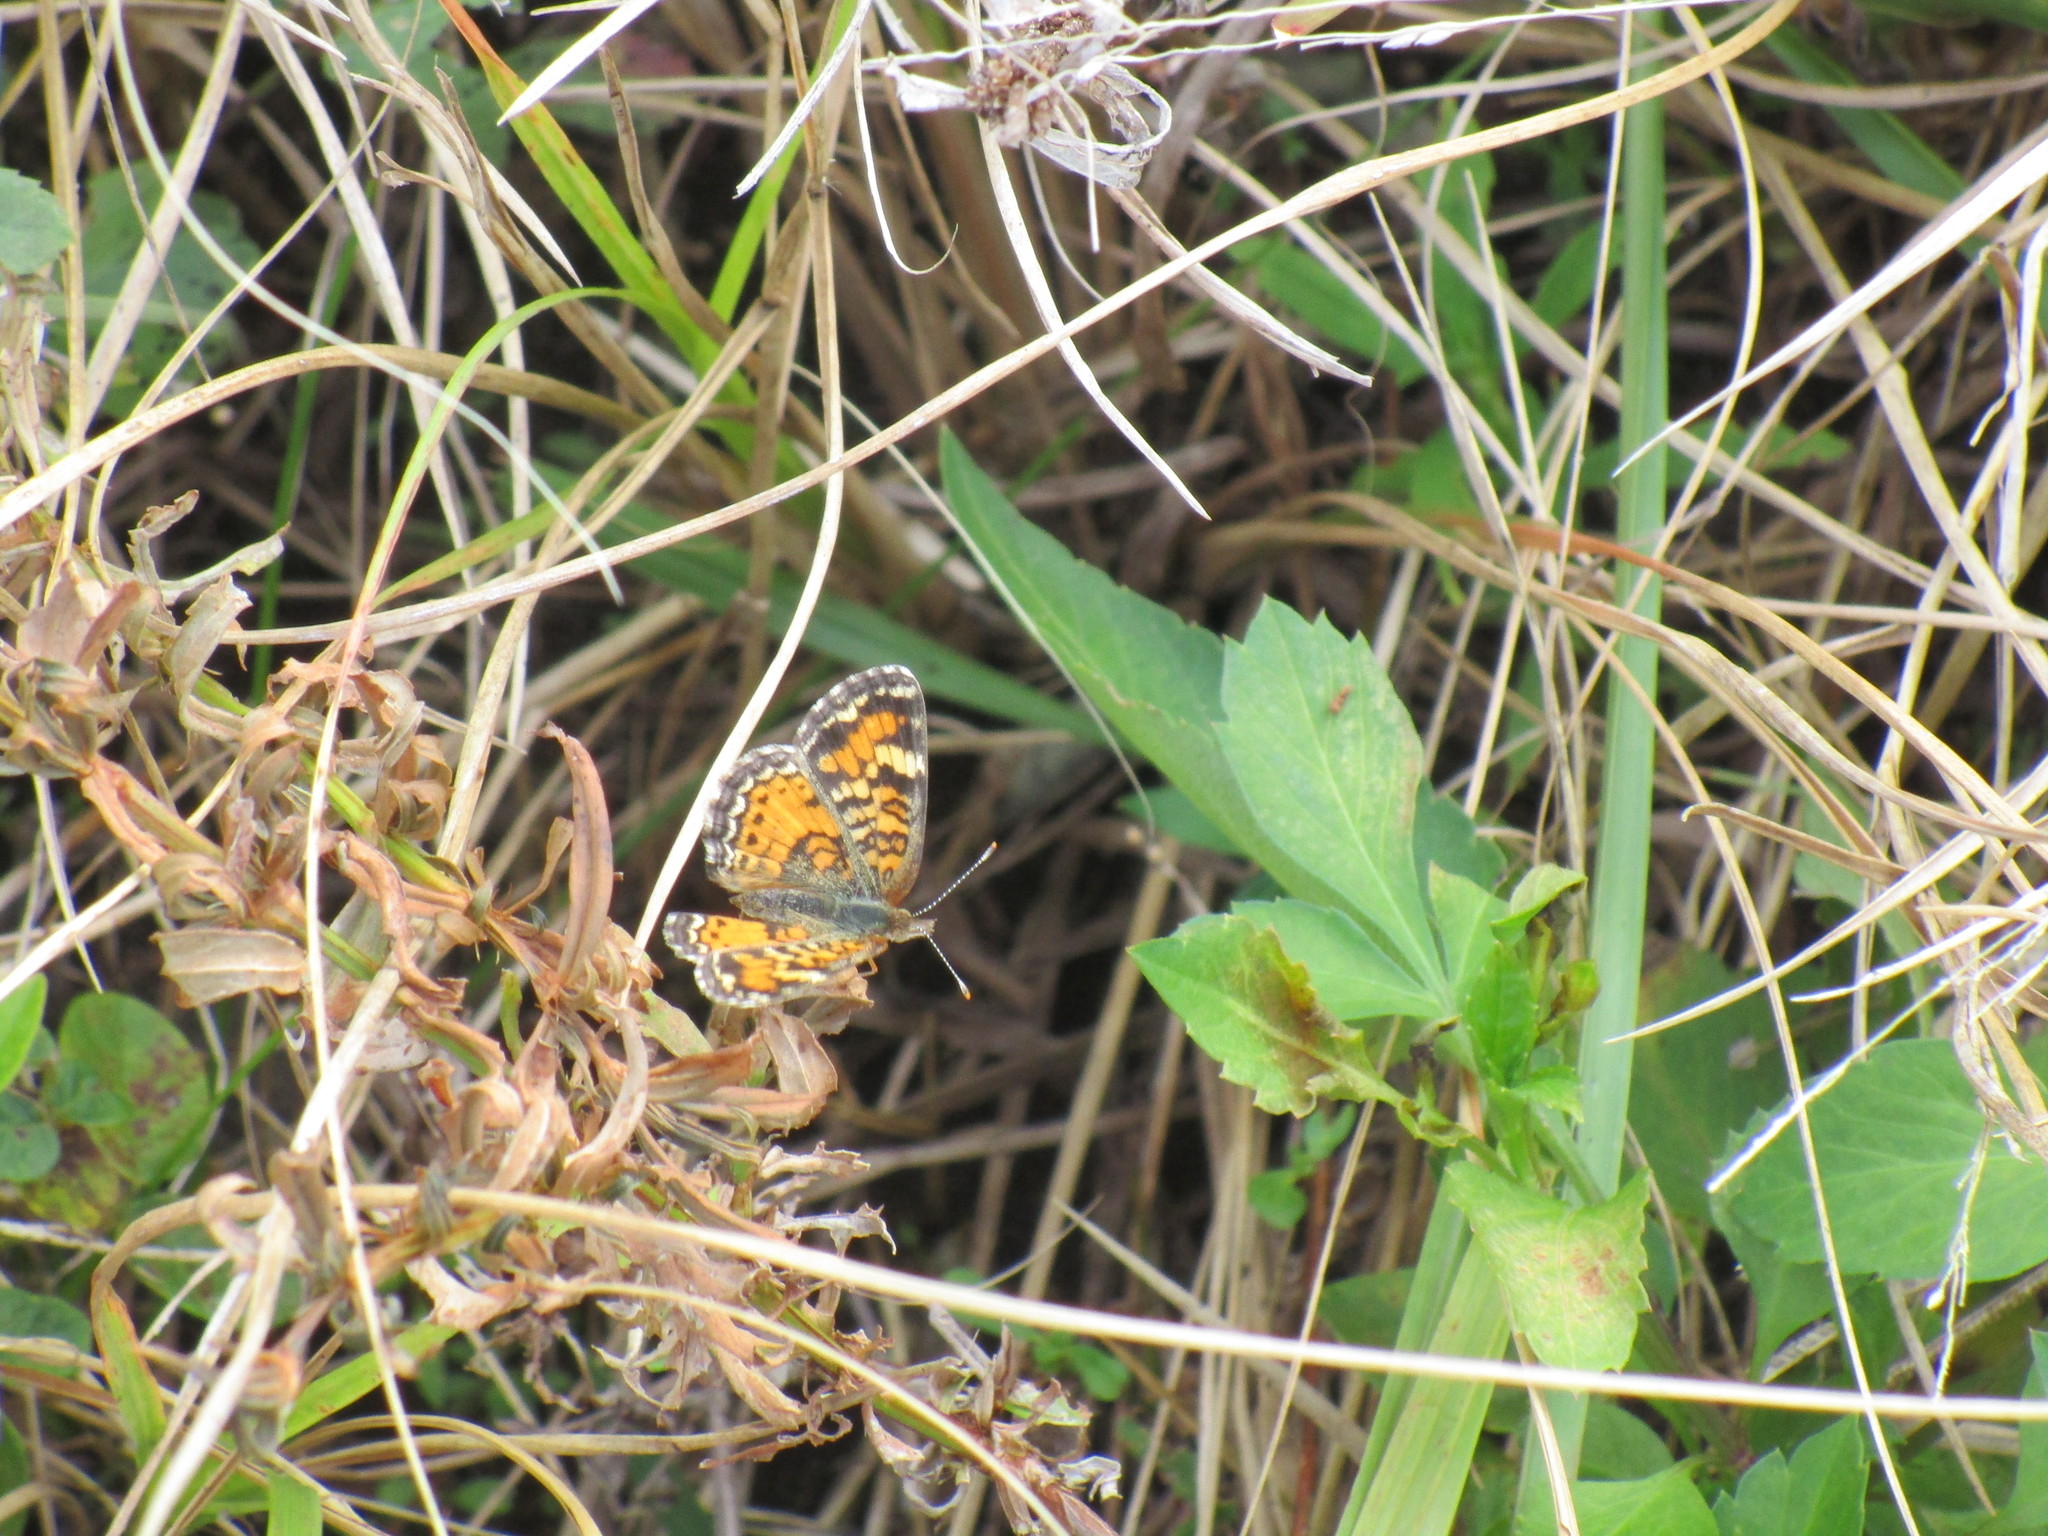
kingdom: Animalia
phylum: Arthropoda
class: Insecta
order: Lepidoptera
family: Nymphalidae
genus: Phyciodes
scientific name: Phyciodes phaon
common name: Phaon crescent
